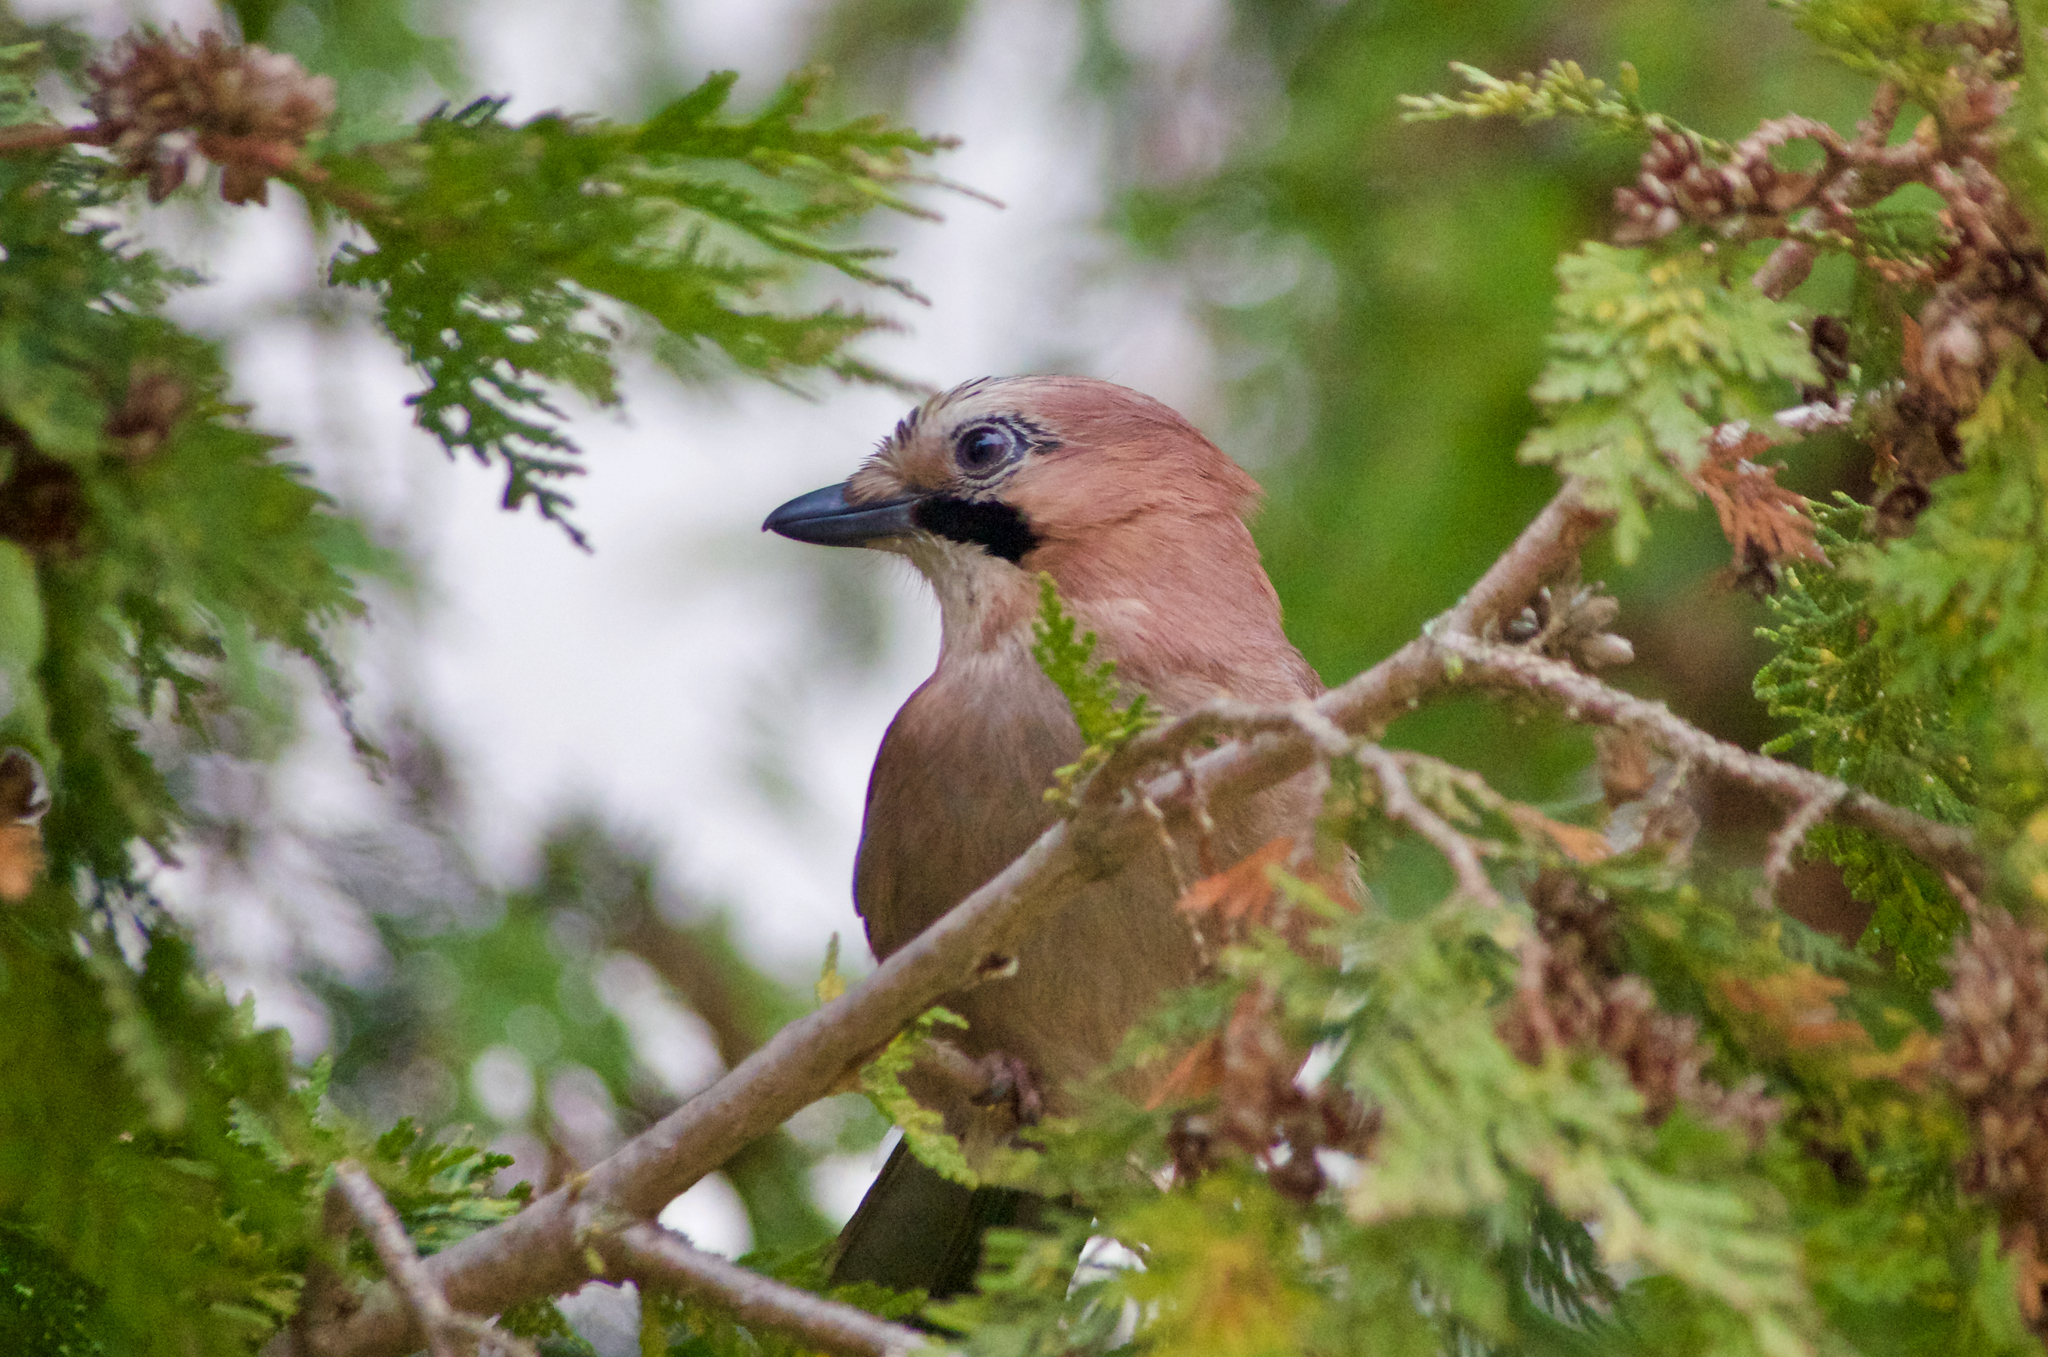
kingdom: Animalia
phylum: Chordata
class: Aves
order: Passeriformes
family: Corvidae
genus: Garrulus
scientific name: Garrulus glandarius
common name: Eurasian jay
